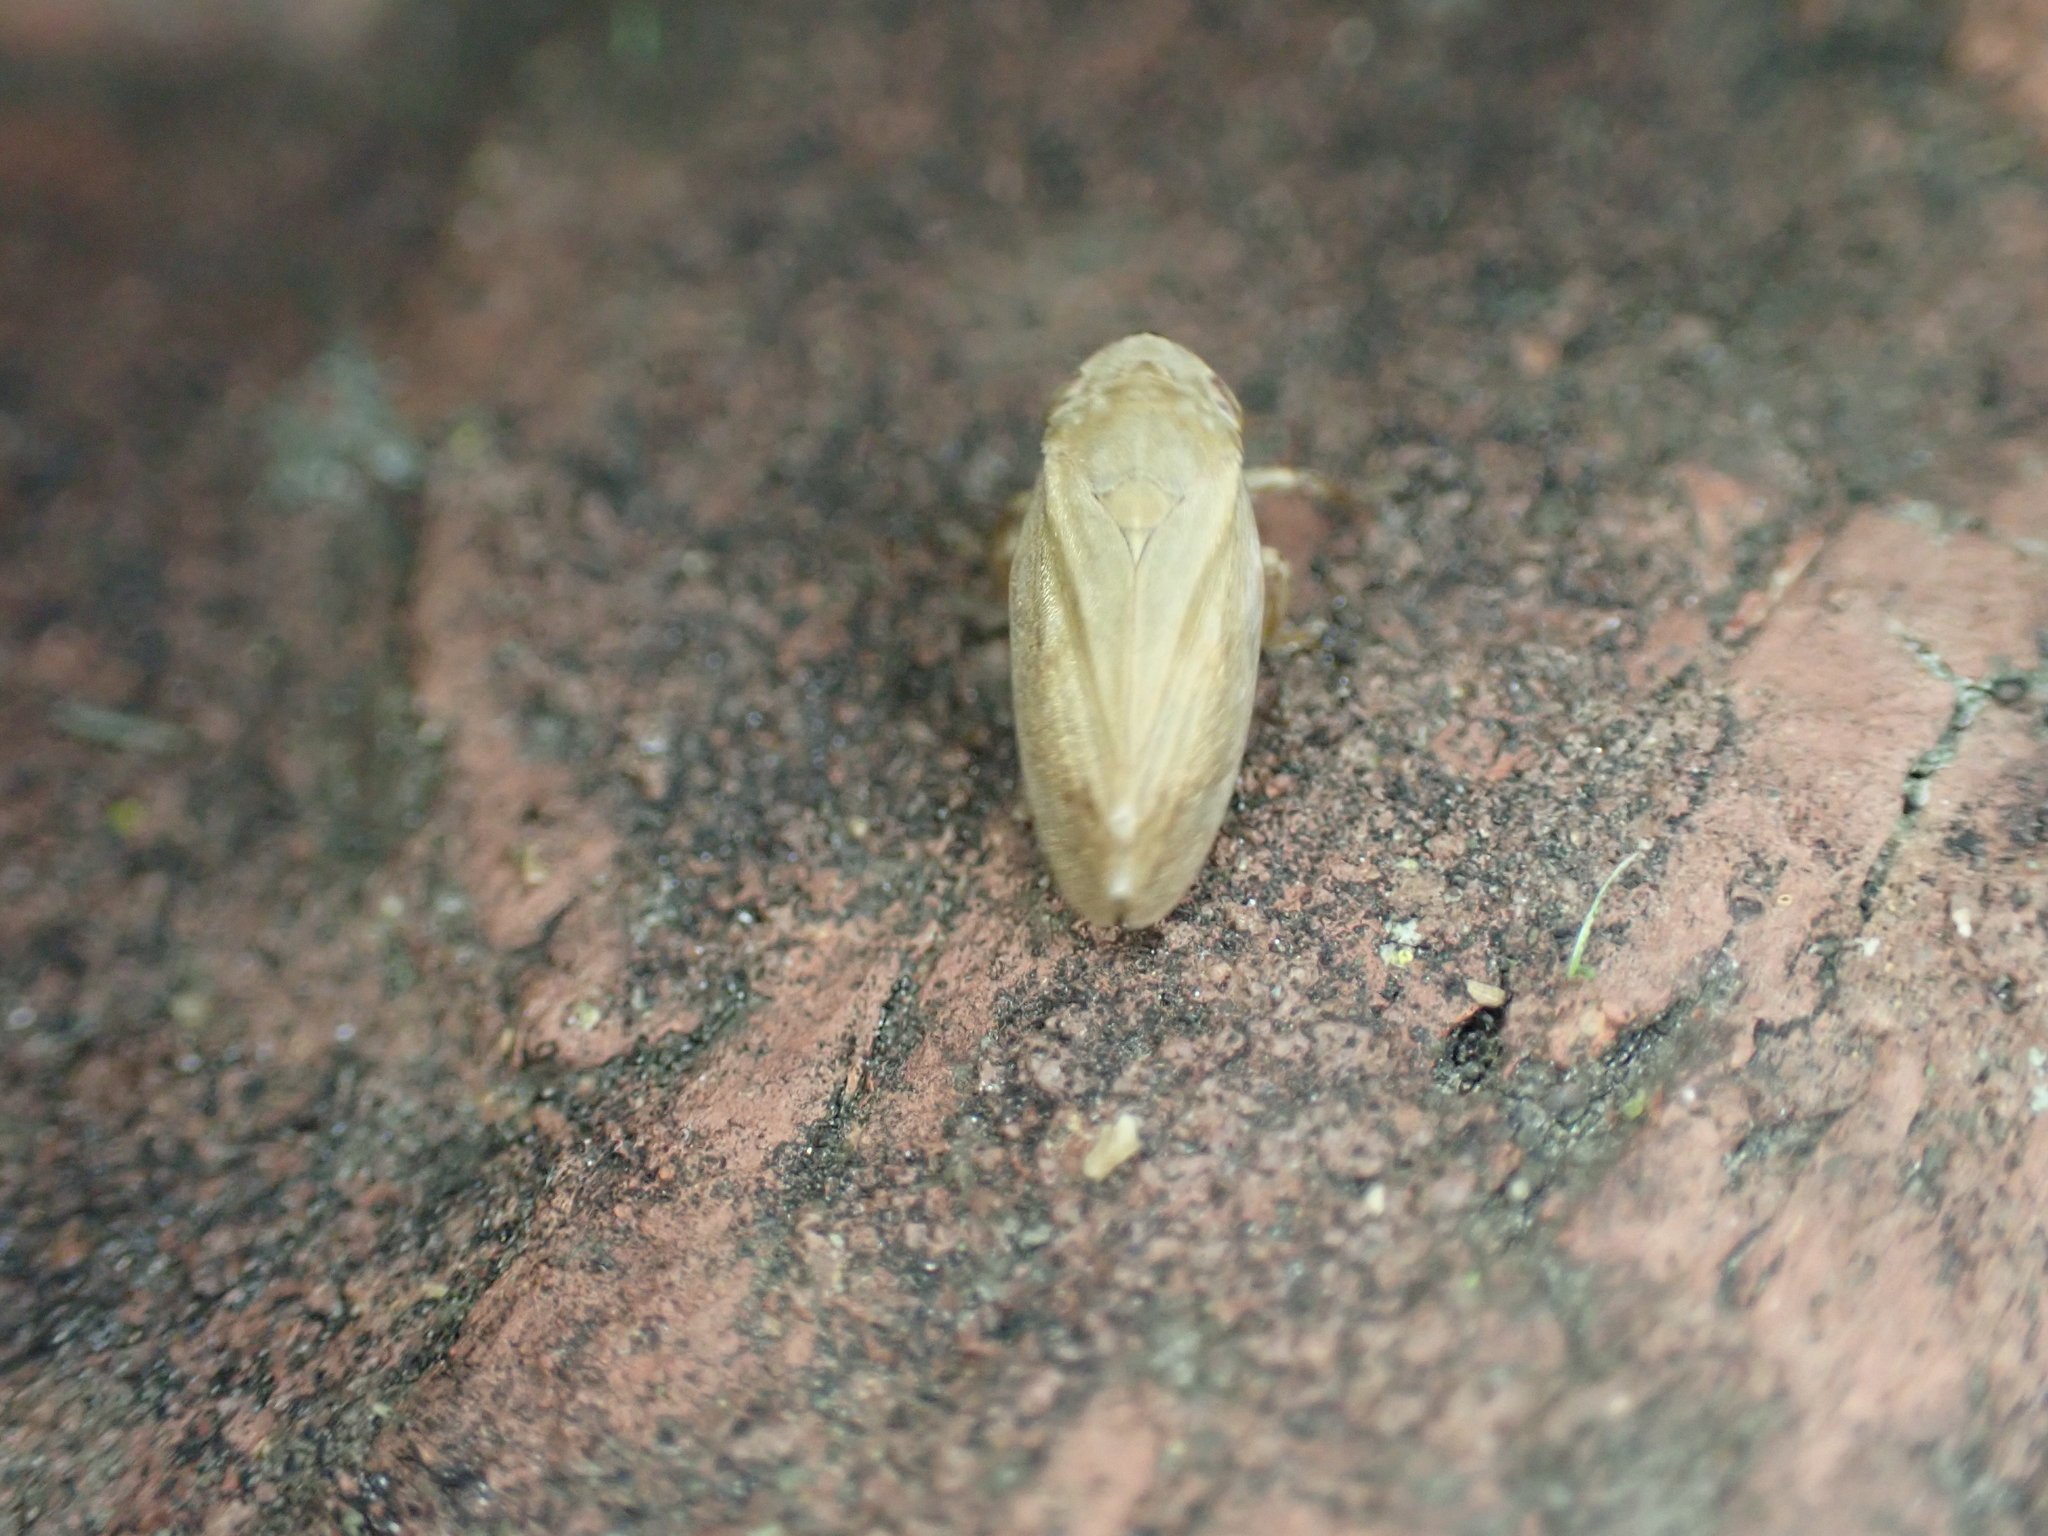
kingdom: Animalia
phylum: Arthropoda
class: Insecta
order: Hemiptera
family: Aphrophoridae
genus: Philaenus
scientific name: Philaenus spumarius
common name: Meadow spittlebug
